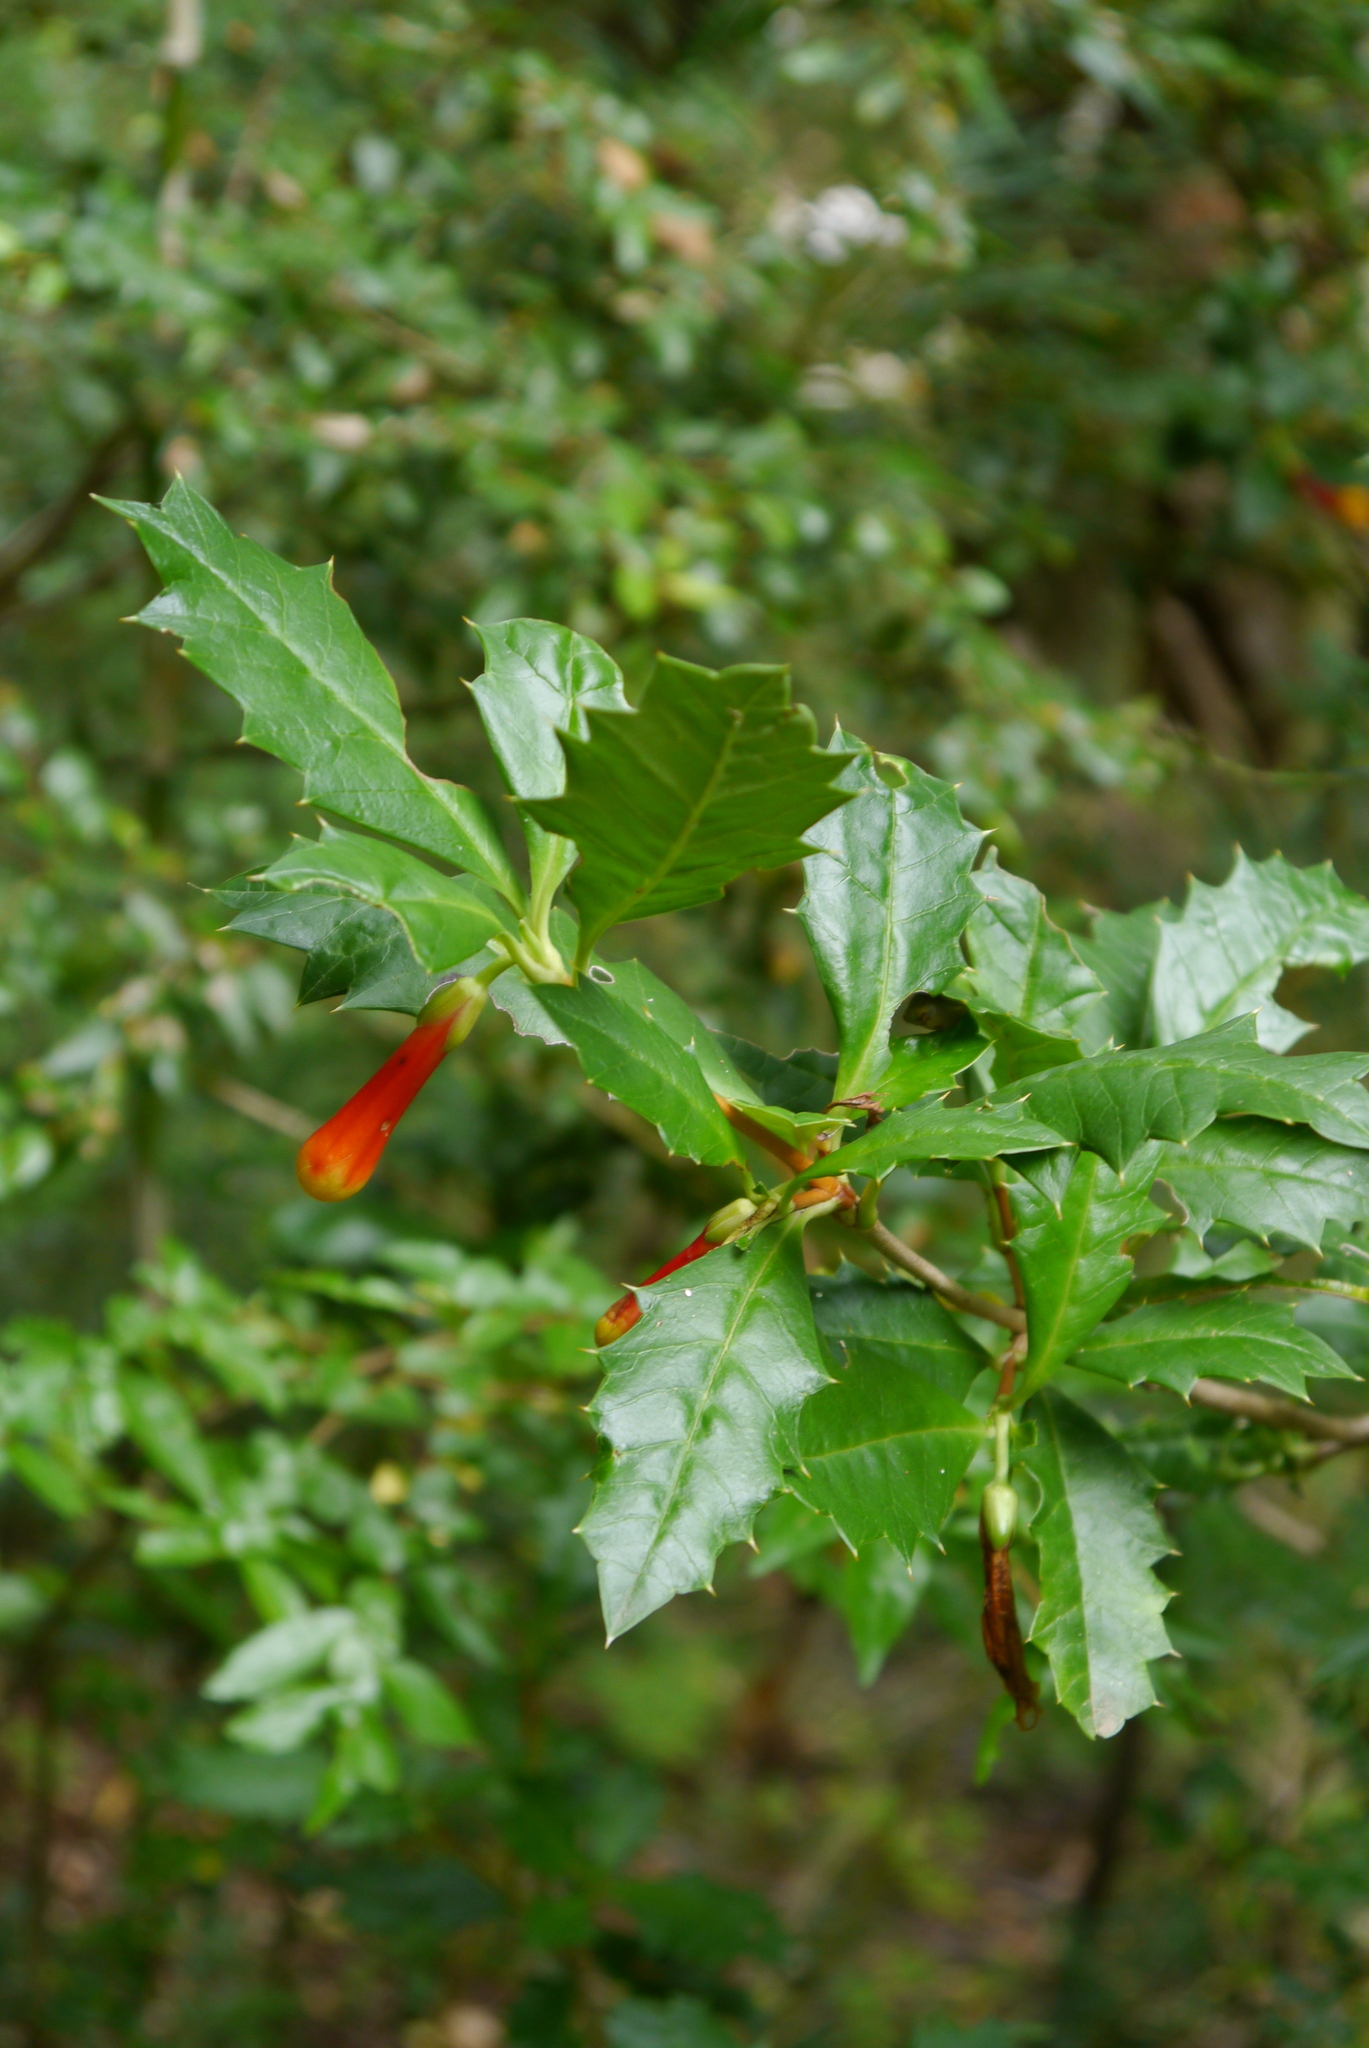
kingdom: Plantae
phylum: Tracheophyta
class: Magnoliopsida
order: Bruniales
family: Columelliaceae
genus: Desfontainia
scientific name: Desfontainia fulgens
